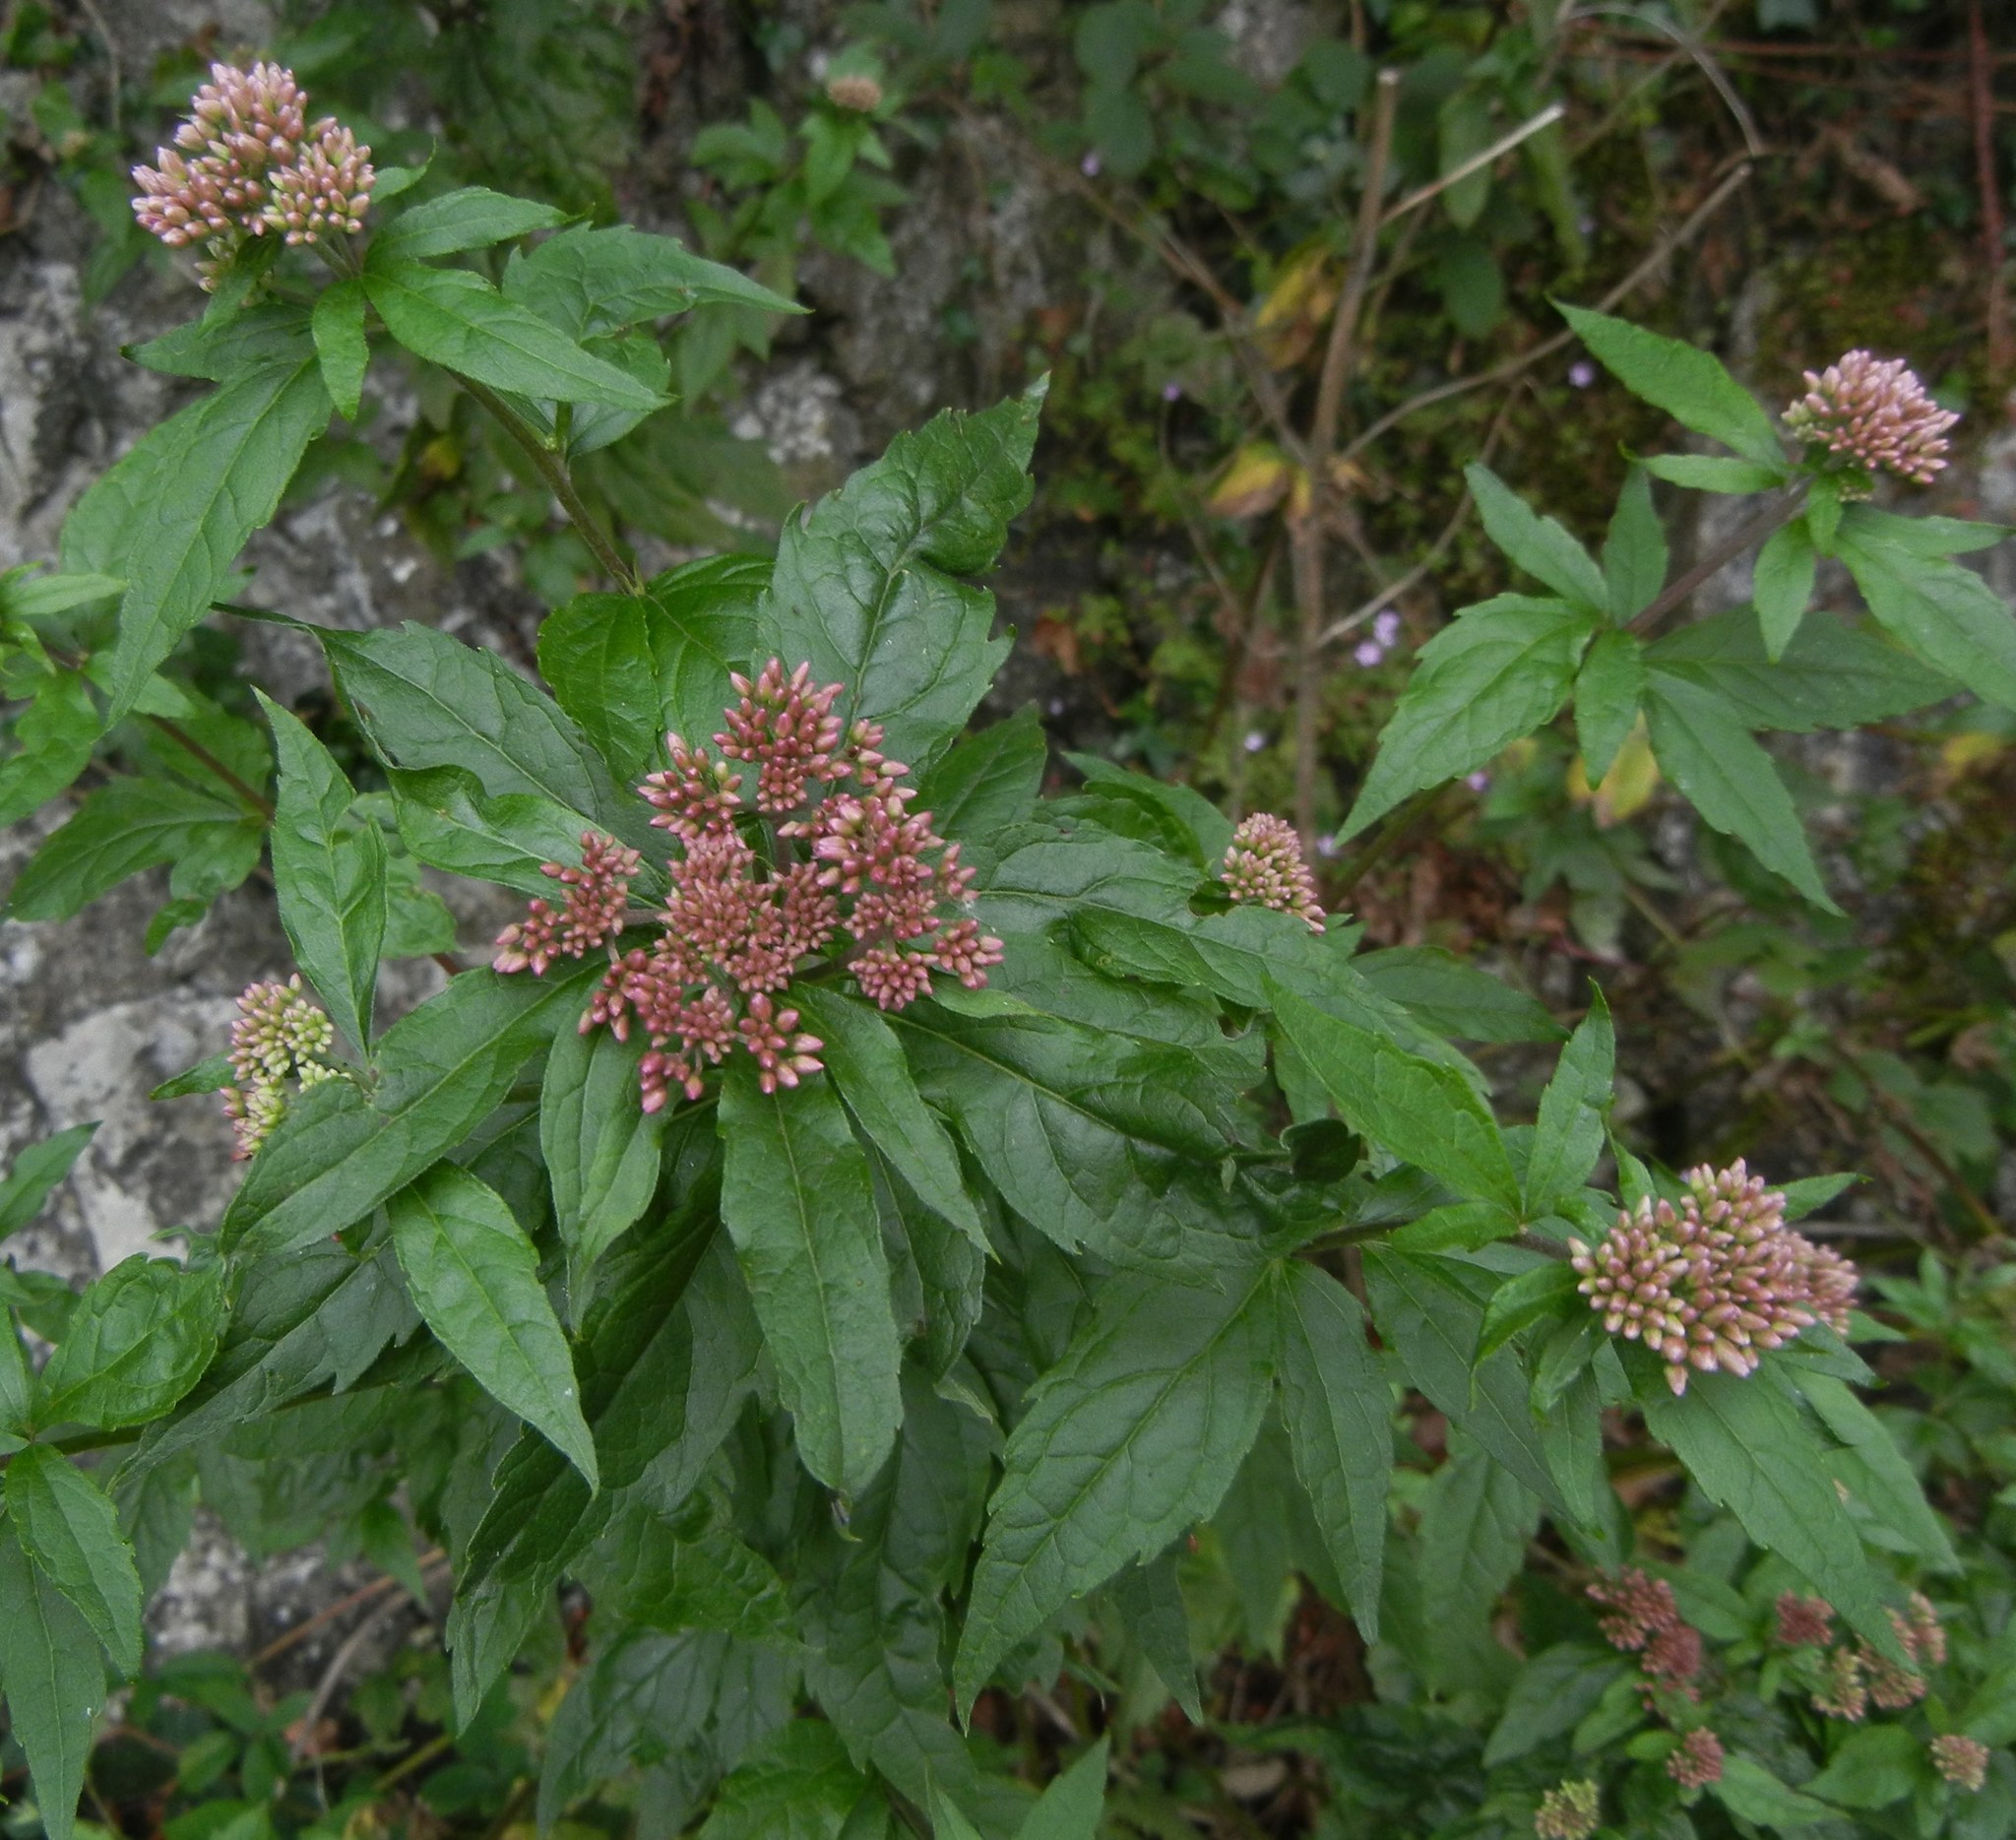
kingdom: Plantae
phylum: Tracheophyta
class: Magnoliopsida
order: Asterales
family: Asteraceae
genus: Eupatorium
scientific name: Eupatorium cannabinum
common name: Hemp-agrimony
